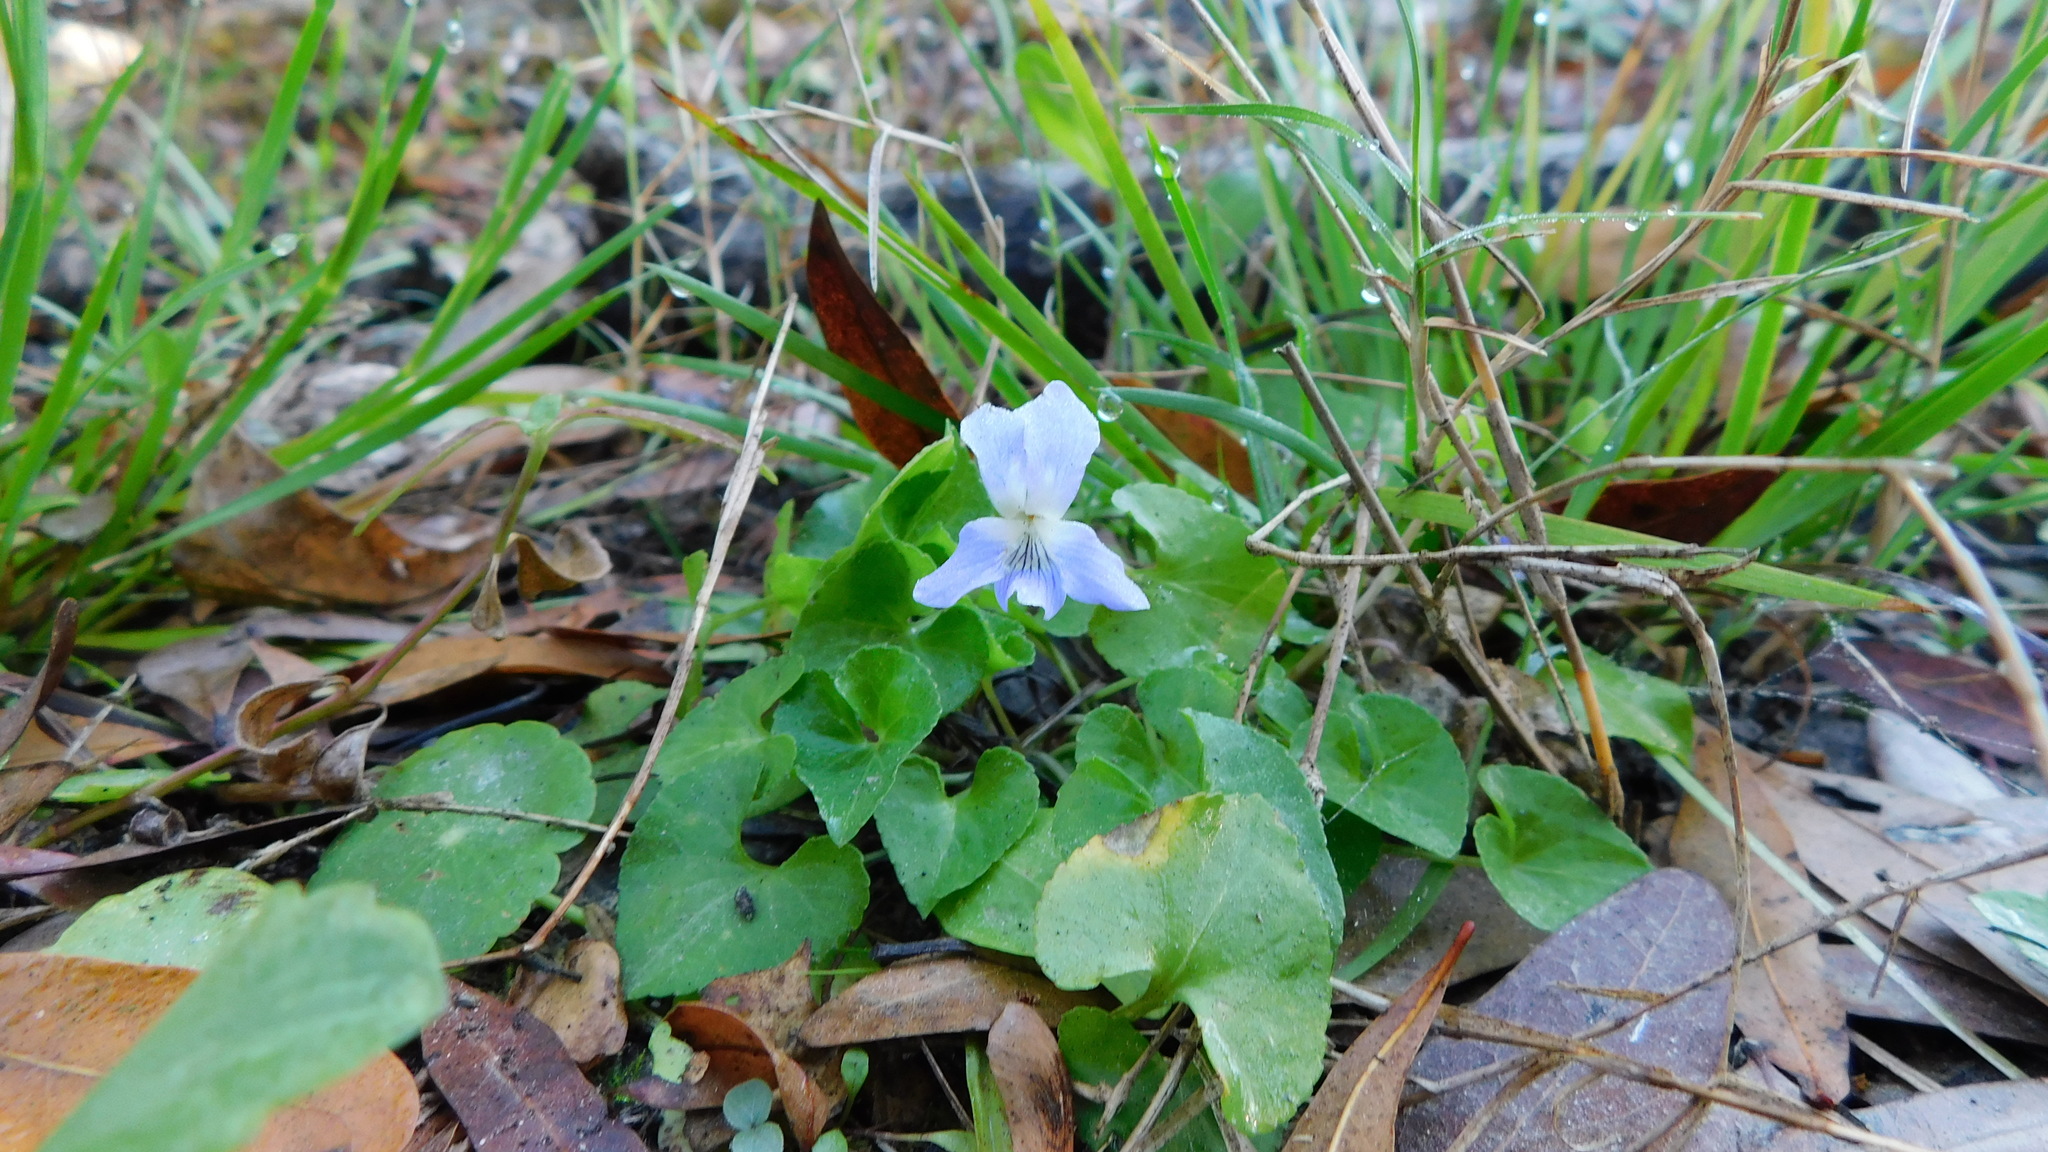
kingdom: Plantae
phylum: Tracheophyta
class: Magnoliopsida
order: Malpighiales
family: Violaceae
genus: Viola
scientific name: Viola sororia
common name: Dooryard violet
